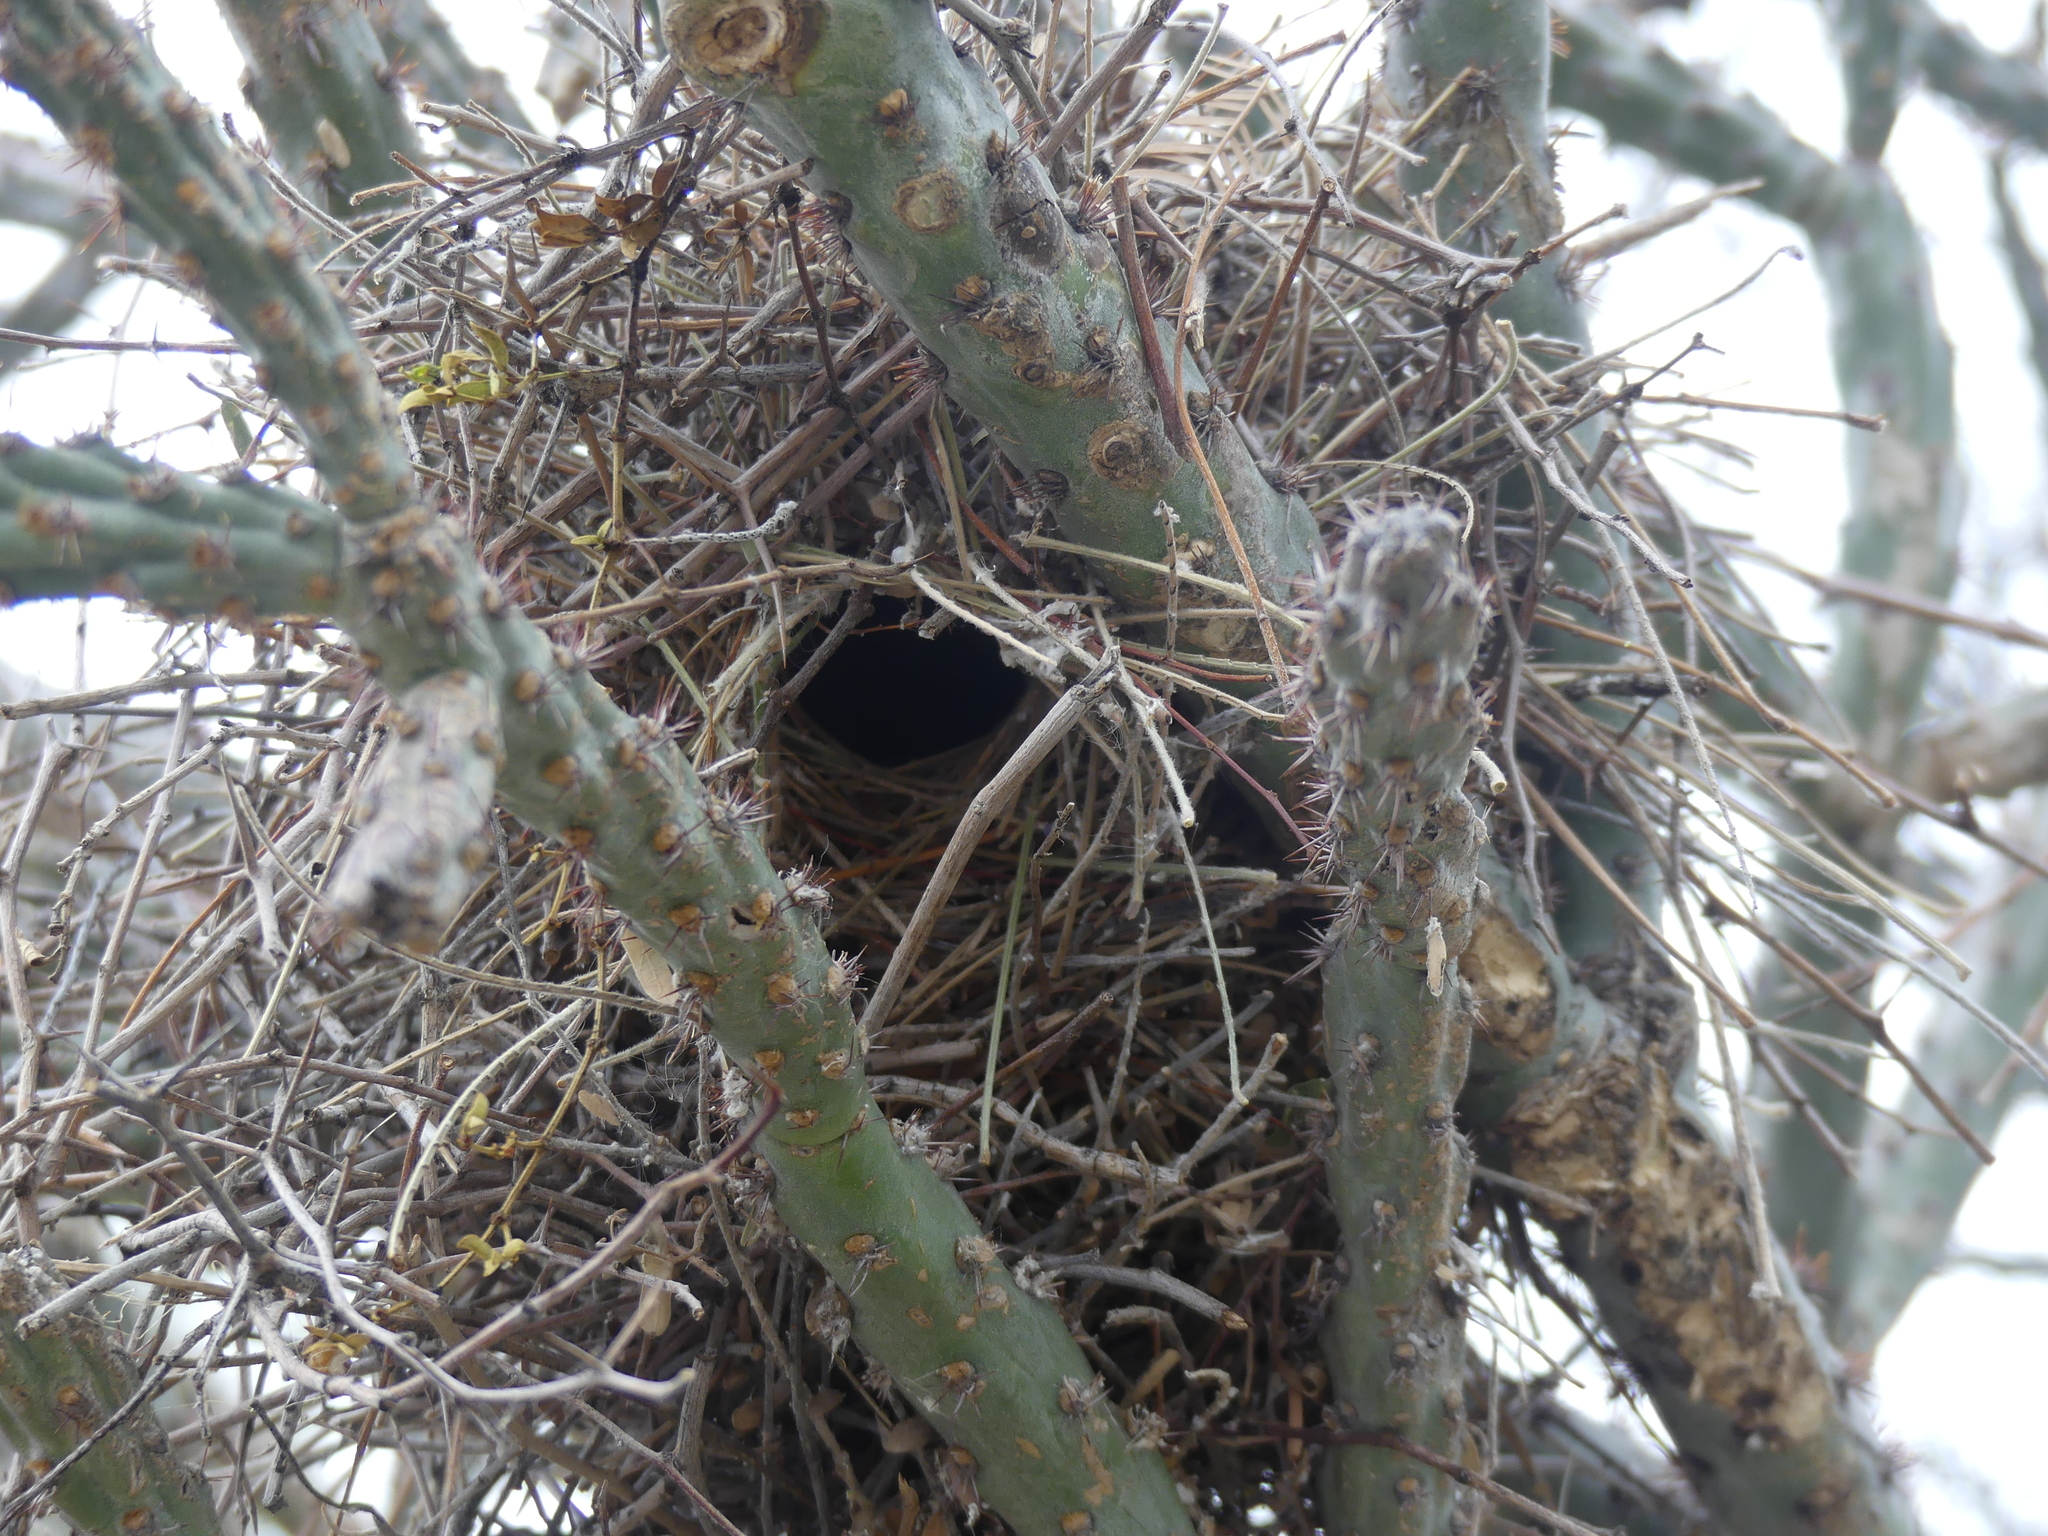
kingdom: Animalia
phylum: Chordata
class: Aves
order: Passeriformes
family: Remizidae
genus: Auriparus
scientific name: Auriparus flaviceps
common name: Verdin
